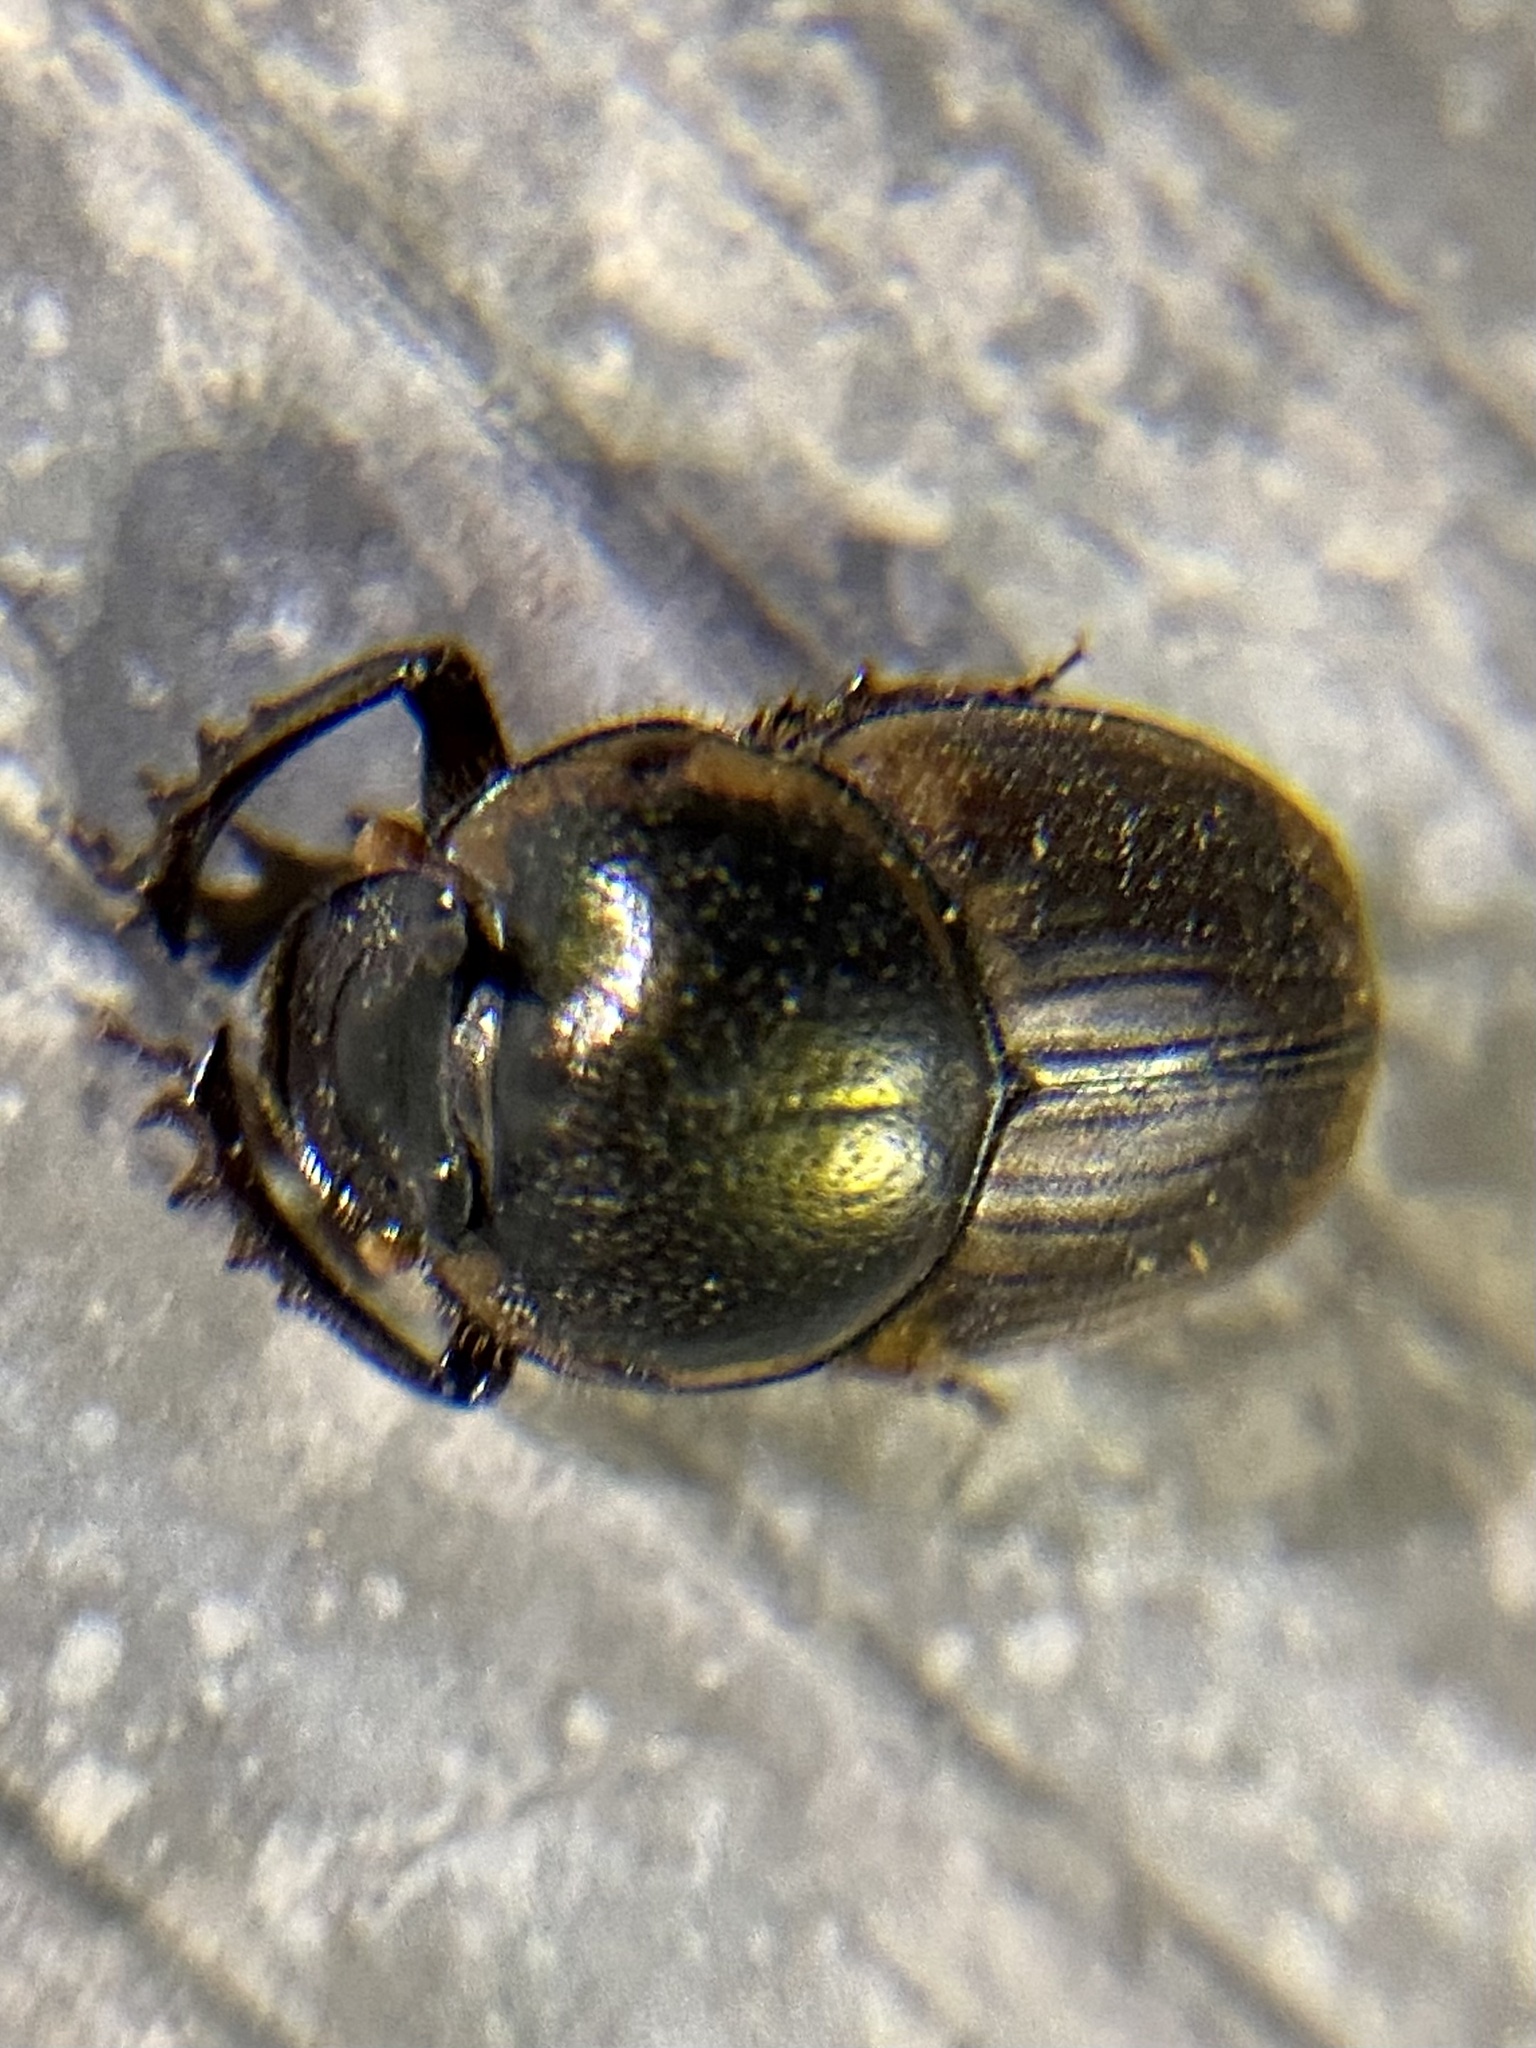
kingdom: Animalia
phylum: Arthropoda
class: Insecta
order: Coleoptera
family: Scarabaeidae
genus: Digitonthophagus
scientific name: Digitonthophagus gazella
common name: Brown dung beetle
